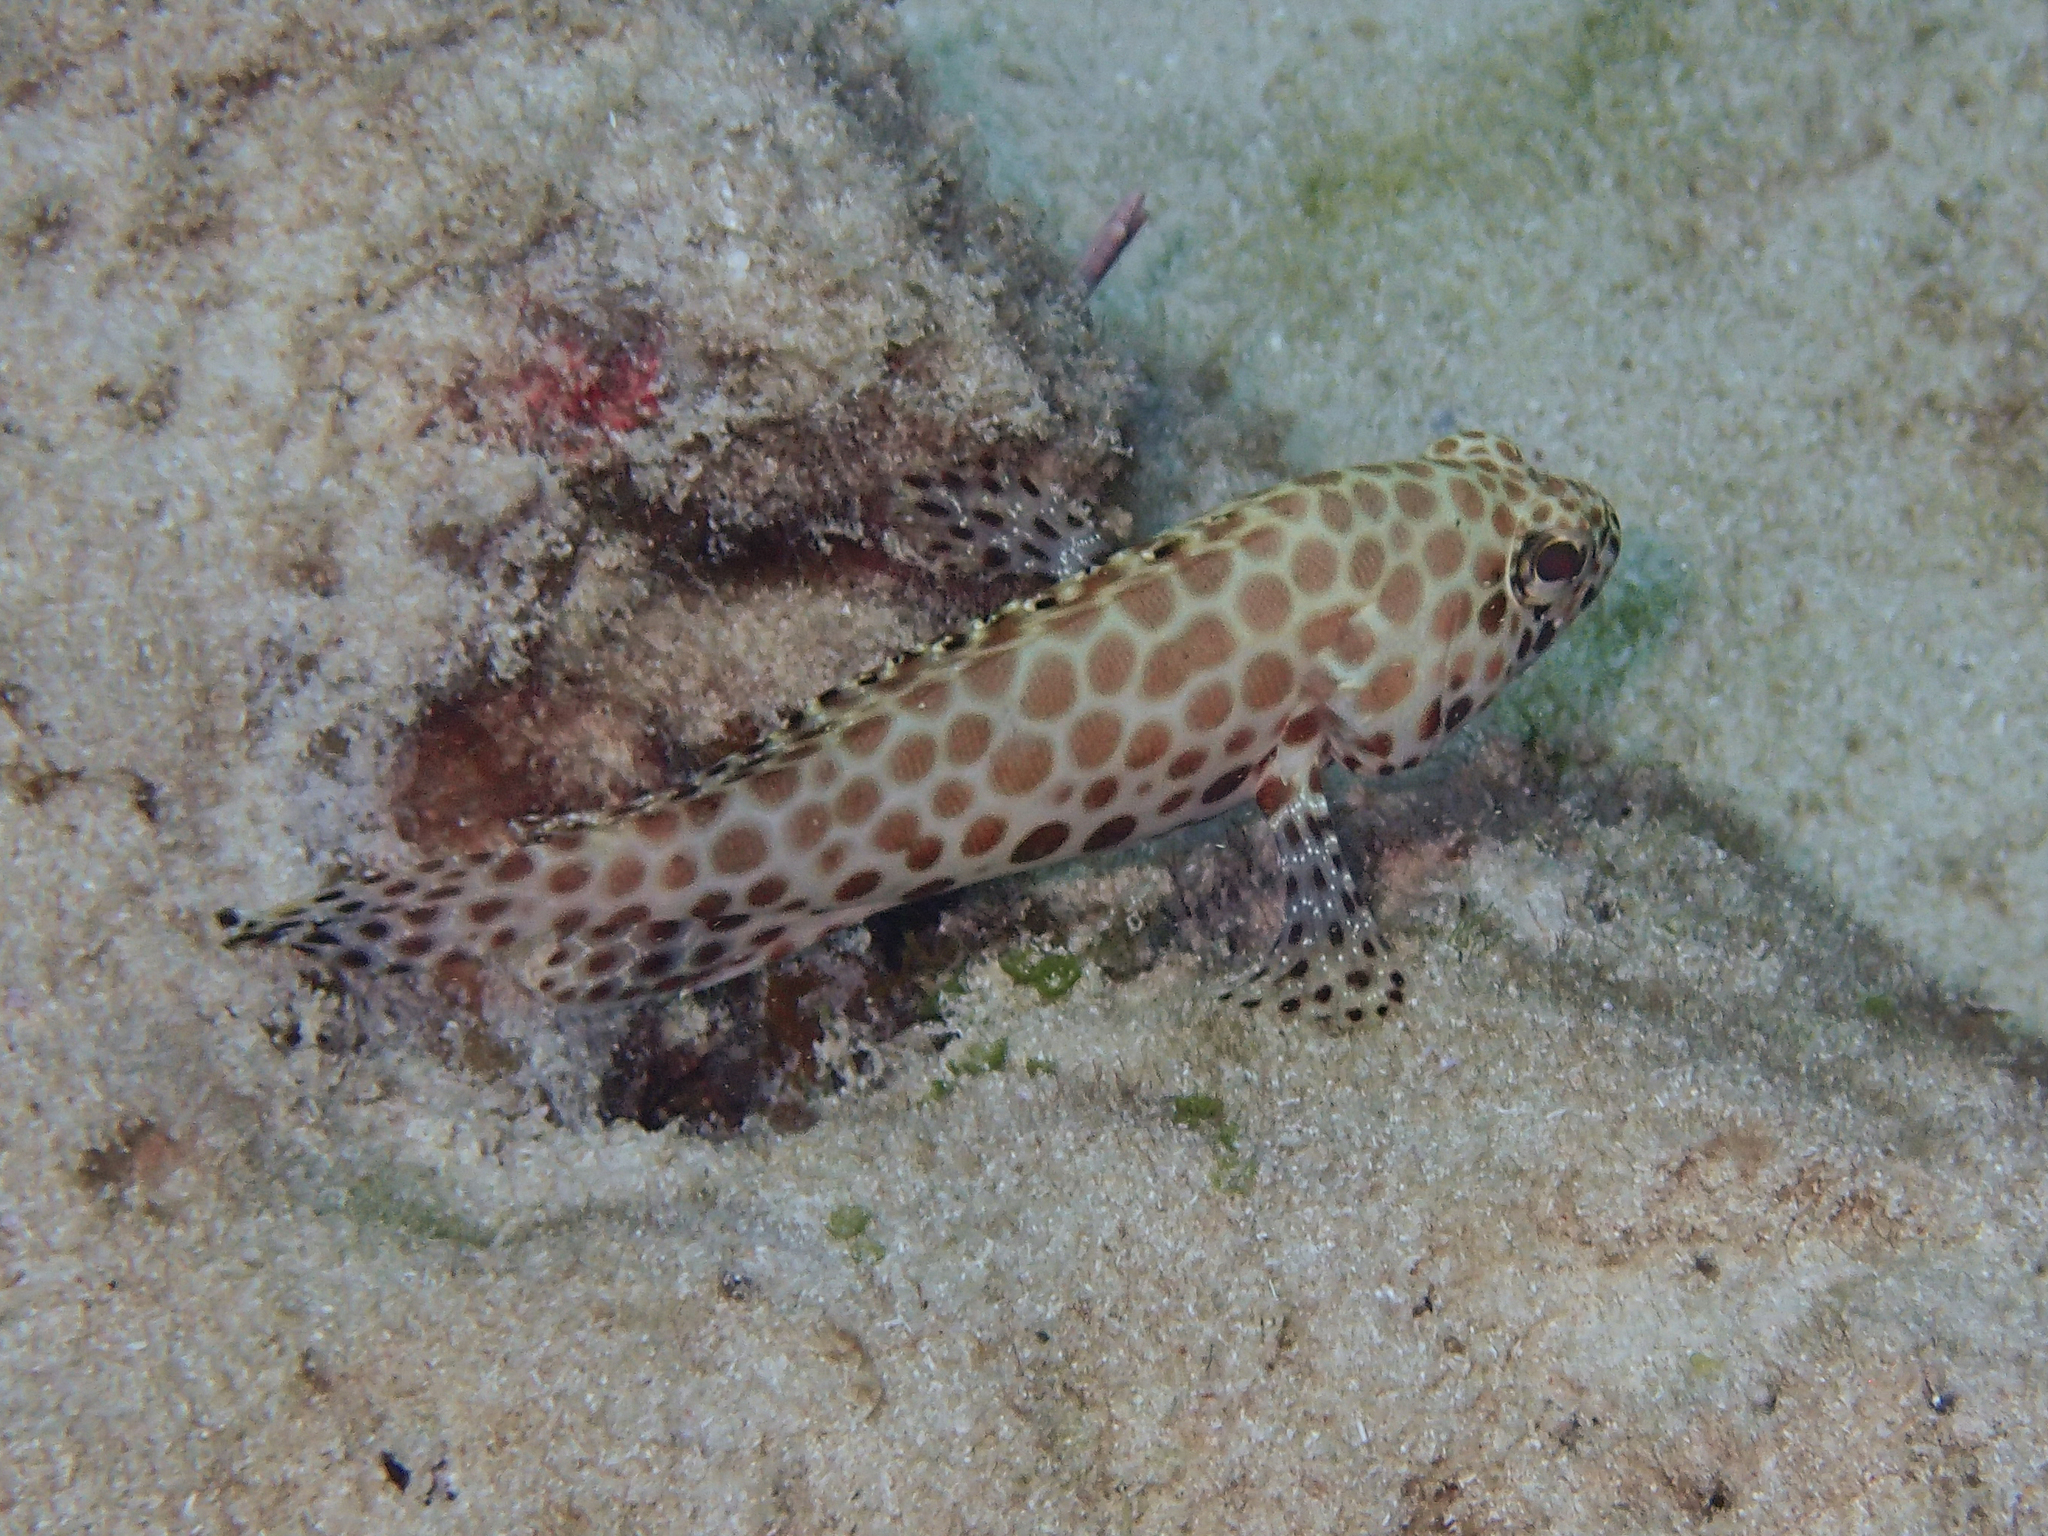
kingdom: Animalia
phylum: Chordata
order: Perciformes
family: Serranidae
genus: Epinephelus
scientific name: Epinephelus merra
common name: Honeycomb grouper
